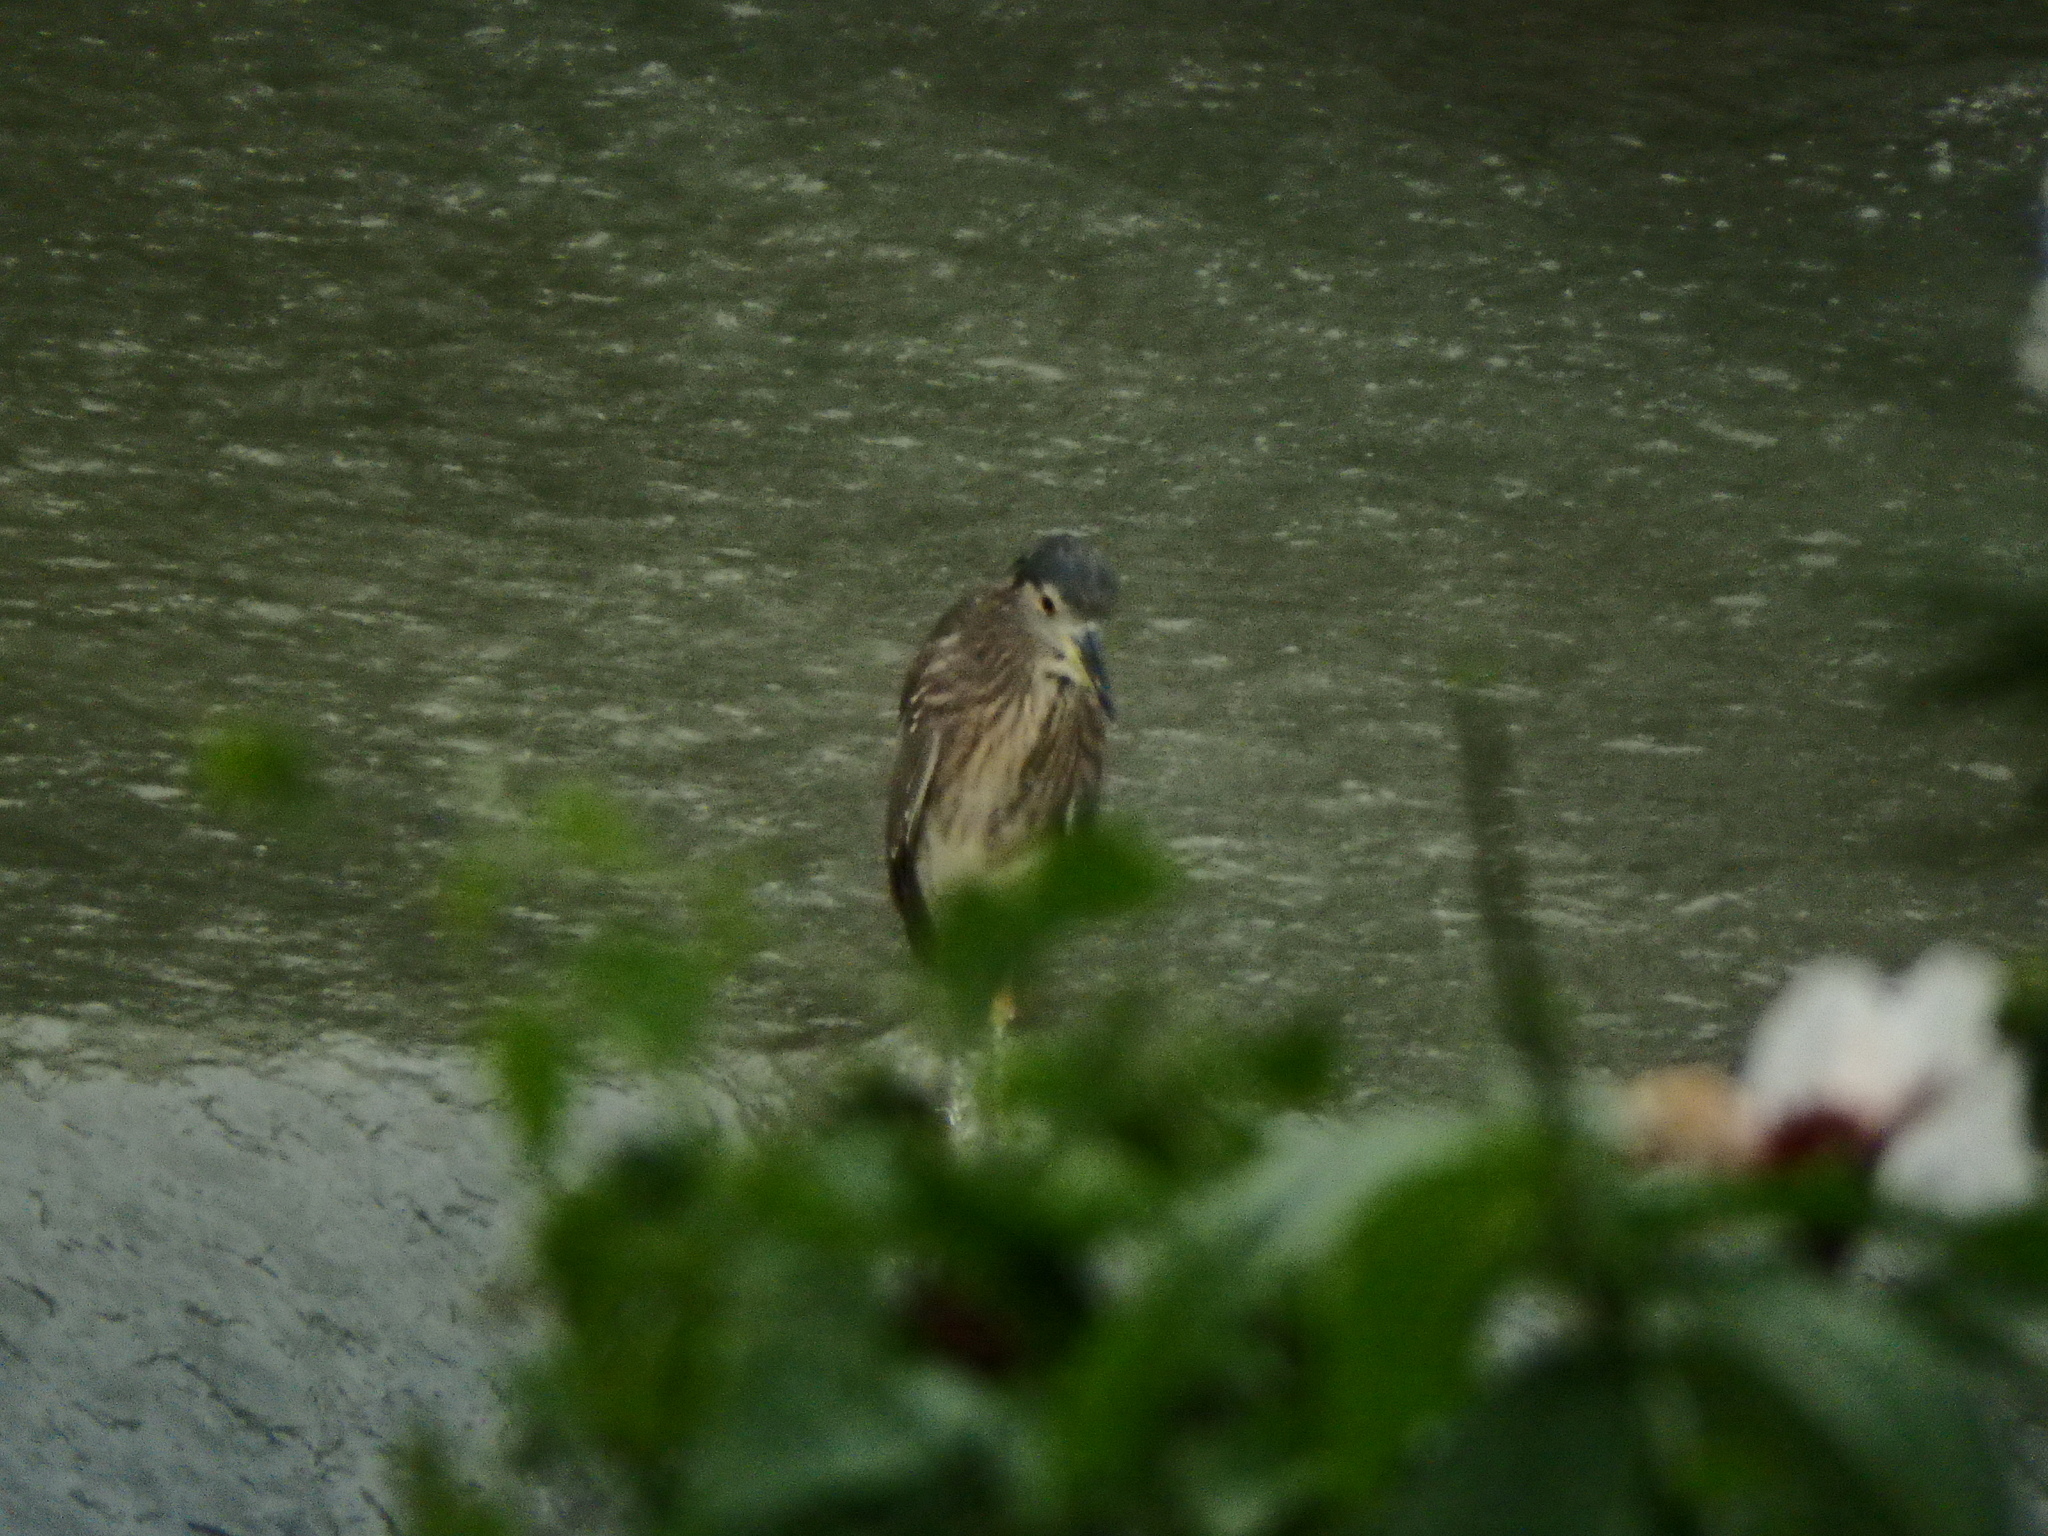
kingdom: Animalia
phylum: Chordata
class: Aves
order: Pelecaniformes
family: Ardeidae
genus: Nycticorax
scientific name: Nycticorax nycticorax
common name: Black-crowned night heron
